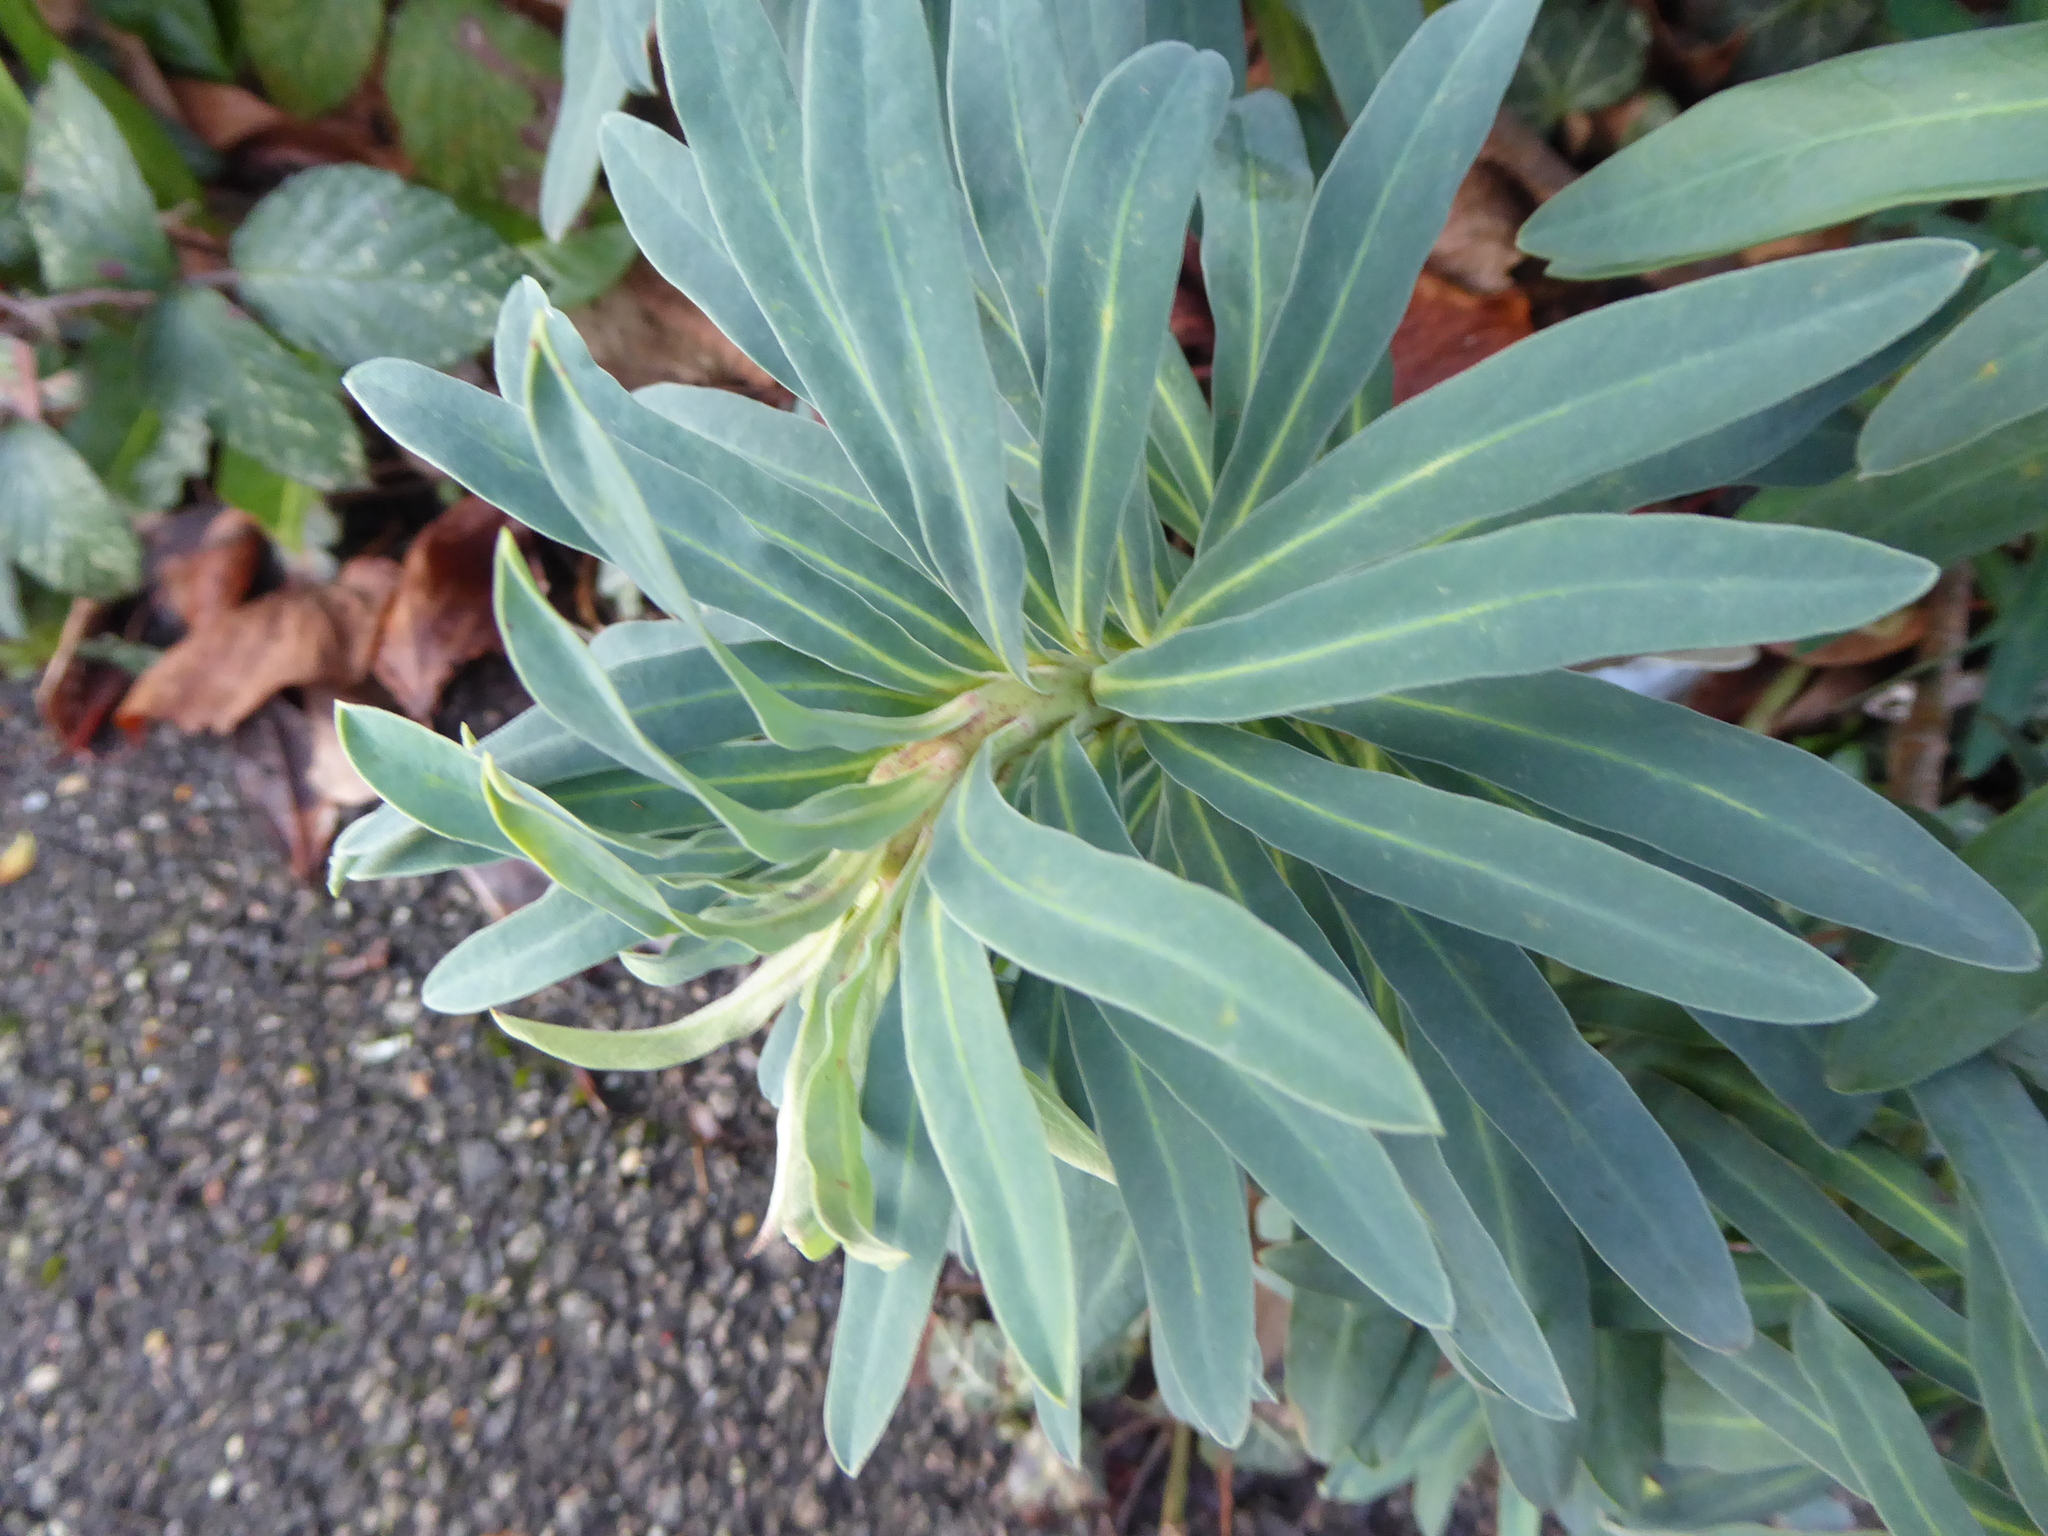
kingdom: Plantae
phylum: Tracheophyta
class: Magnoliopsida
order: Malpighiales
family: Euphorbiaceae
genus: Euphorbia
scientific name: Euphorbia characias
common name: Mediterranean spurge
